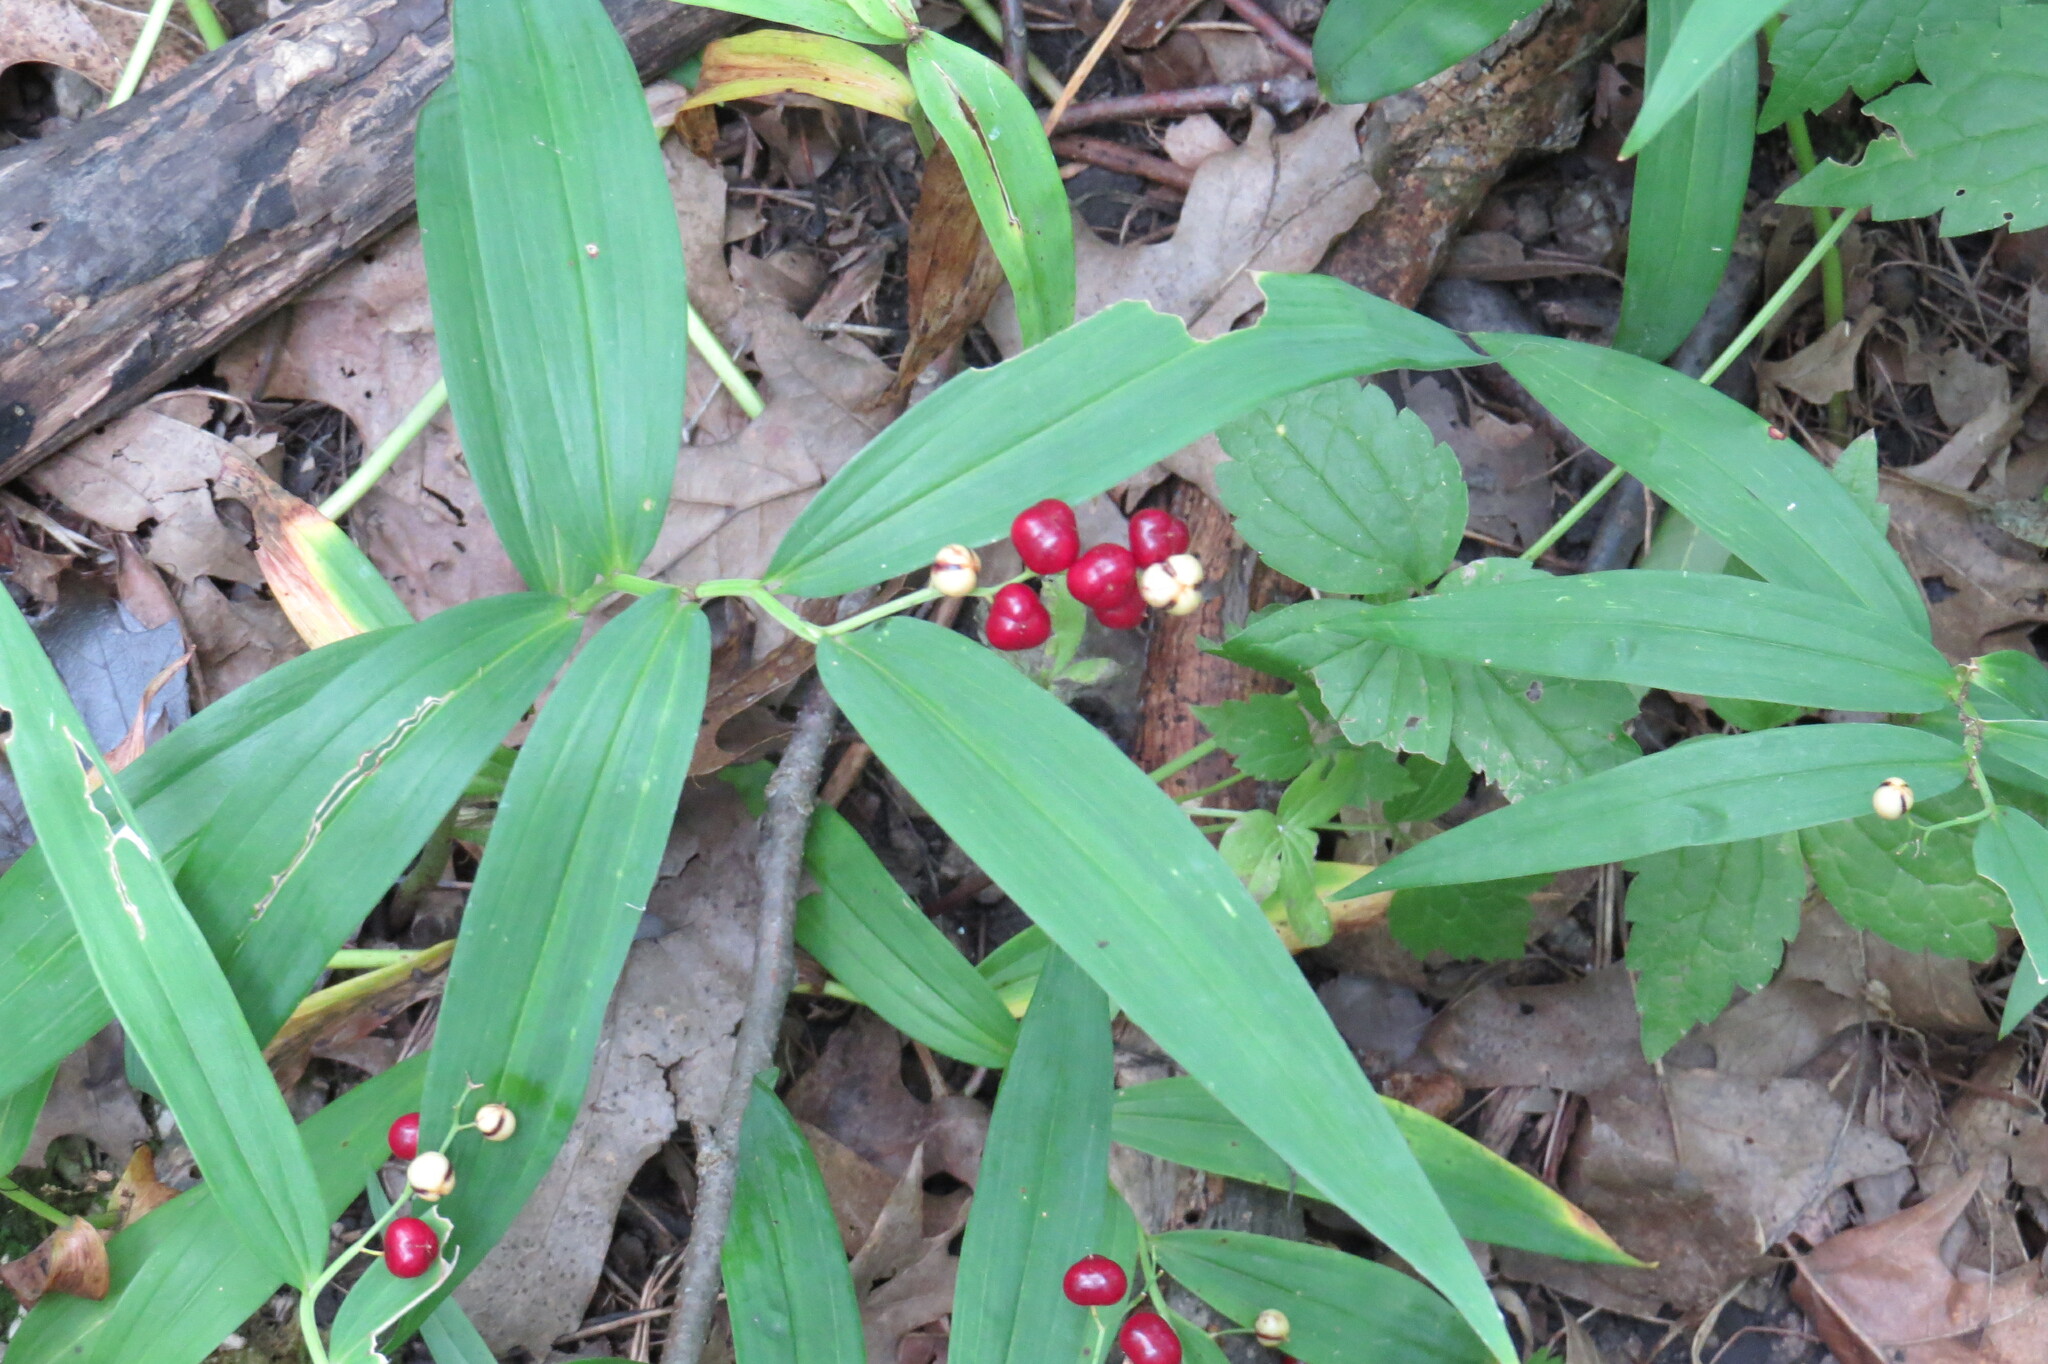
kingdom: Plantae
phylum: Tracheophyta
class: Liliopsida
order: Asparagales
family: Asparagaceae
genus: Maianthemum
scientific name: Maianthemum stellatum
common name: Little false solomon's seal
